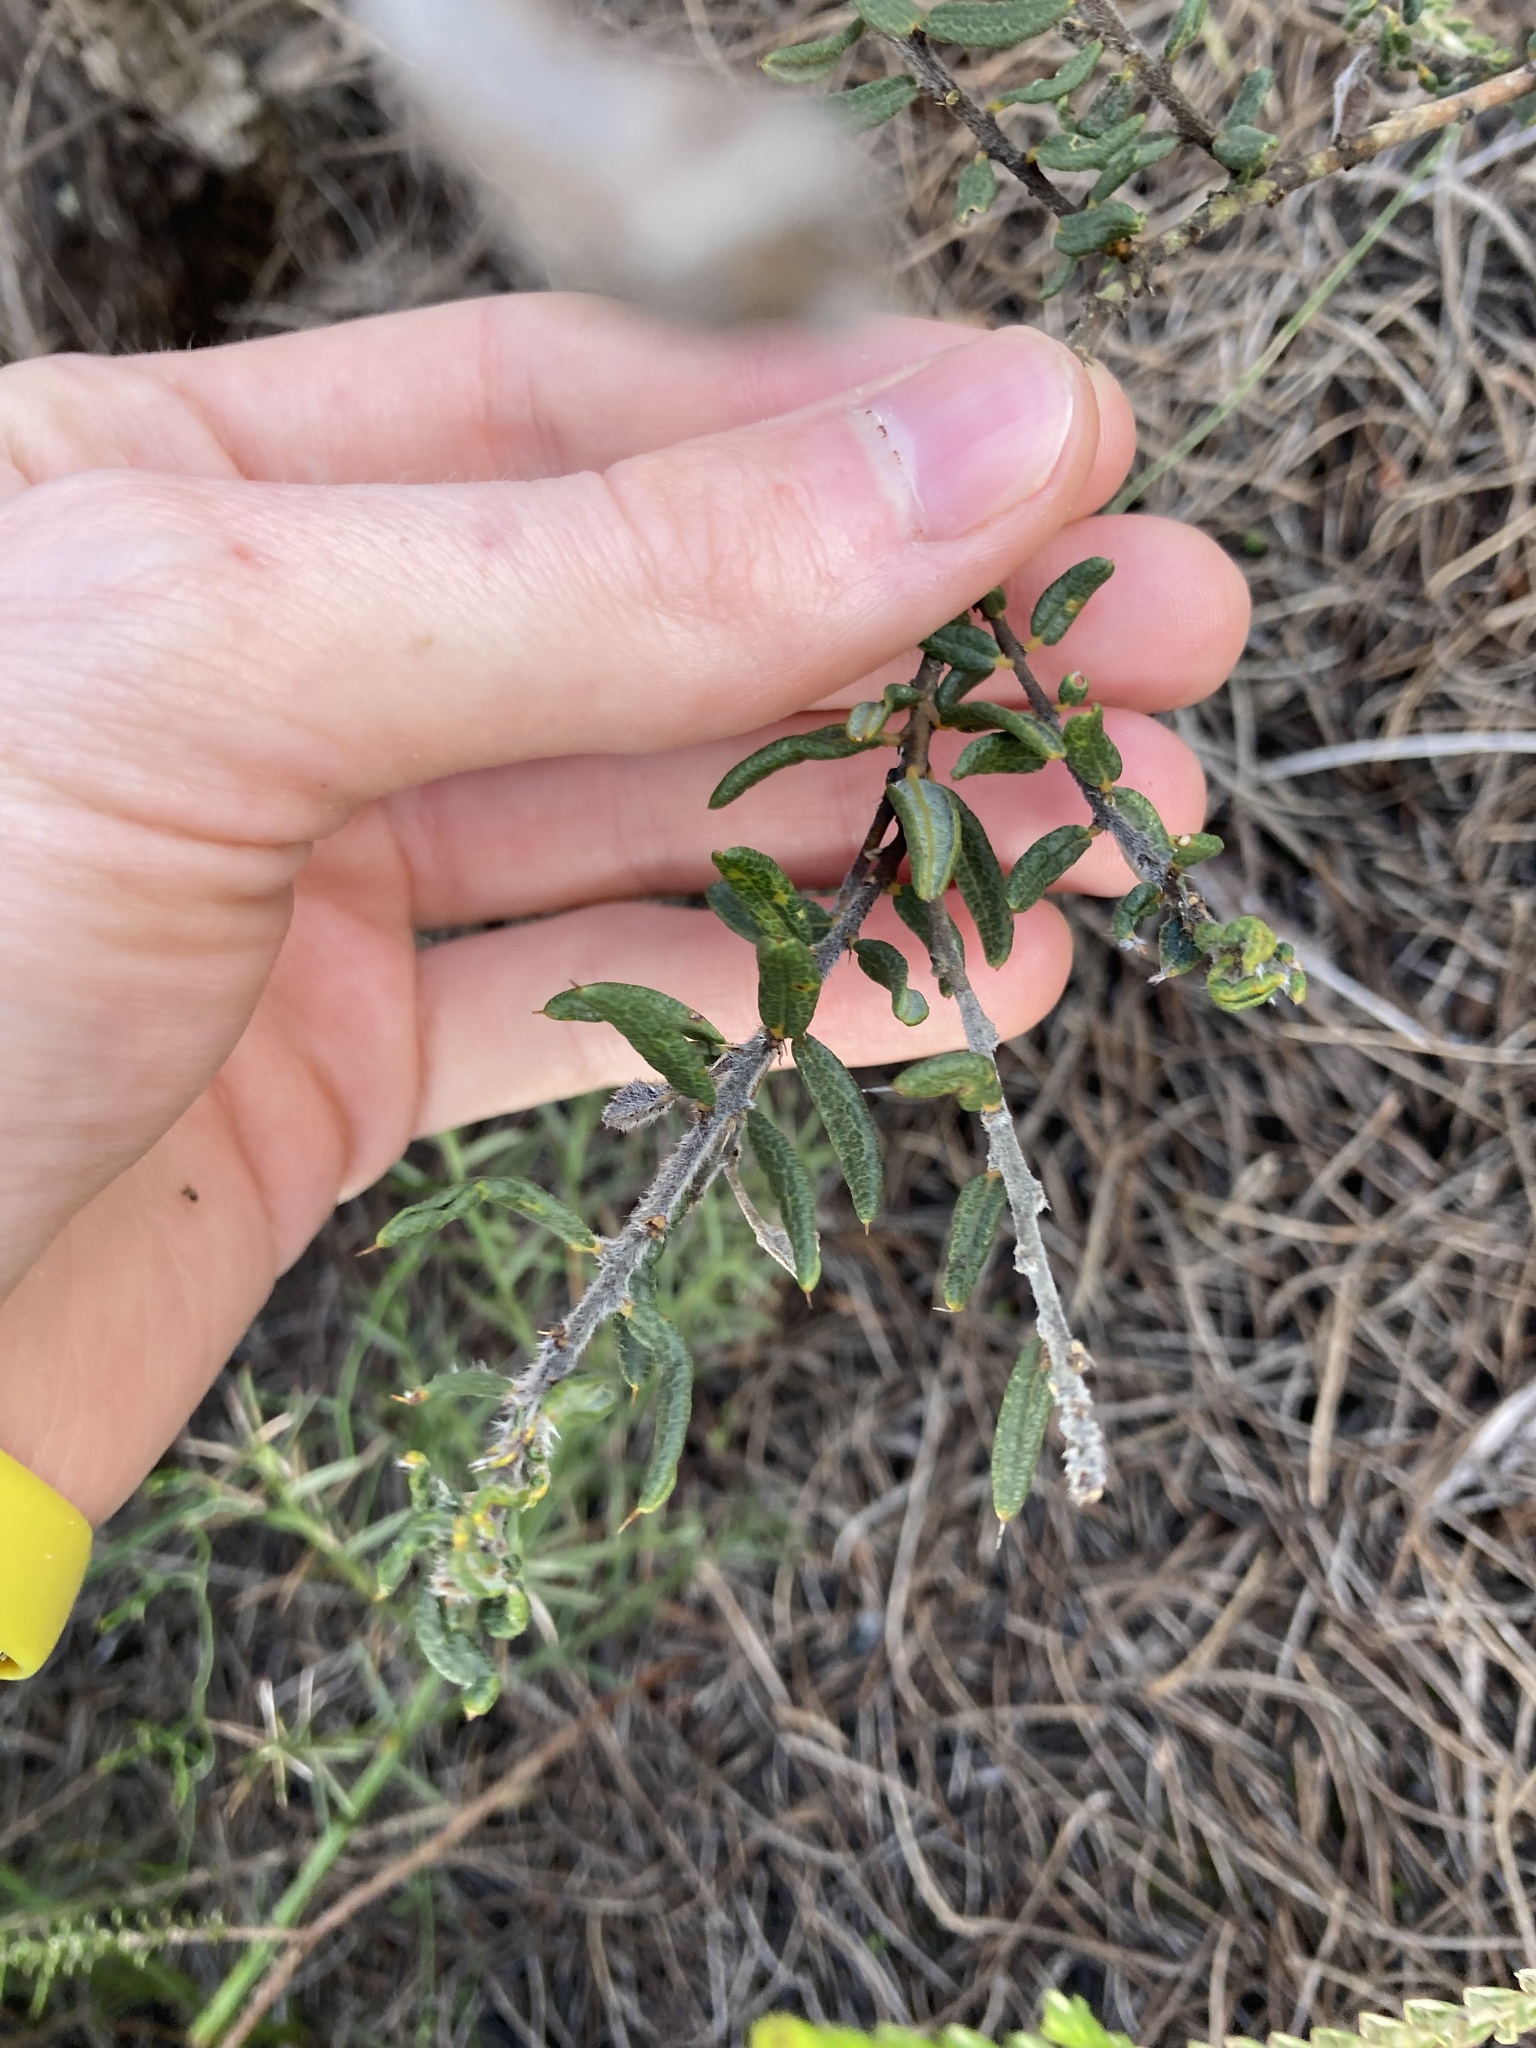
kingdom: Plantae
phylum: Tracheophyta
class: Magnoliopsida
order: Fabales
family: Fabaceae
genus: Hovea
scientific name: Hovea pungens
